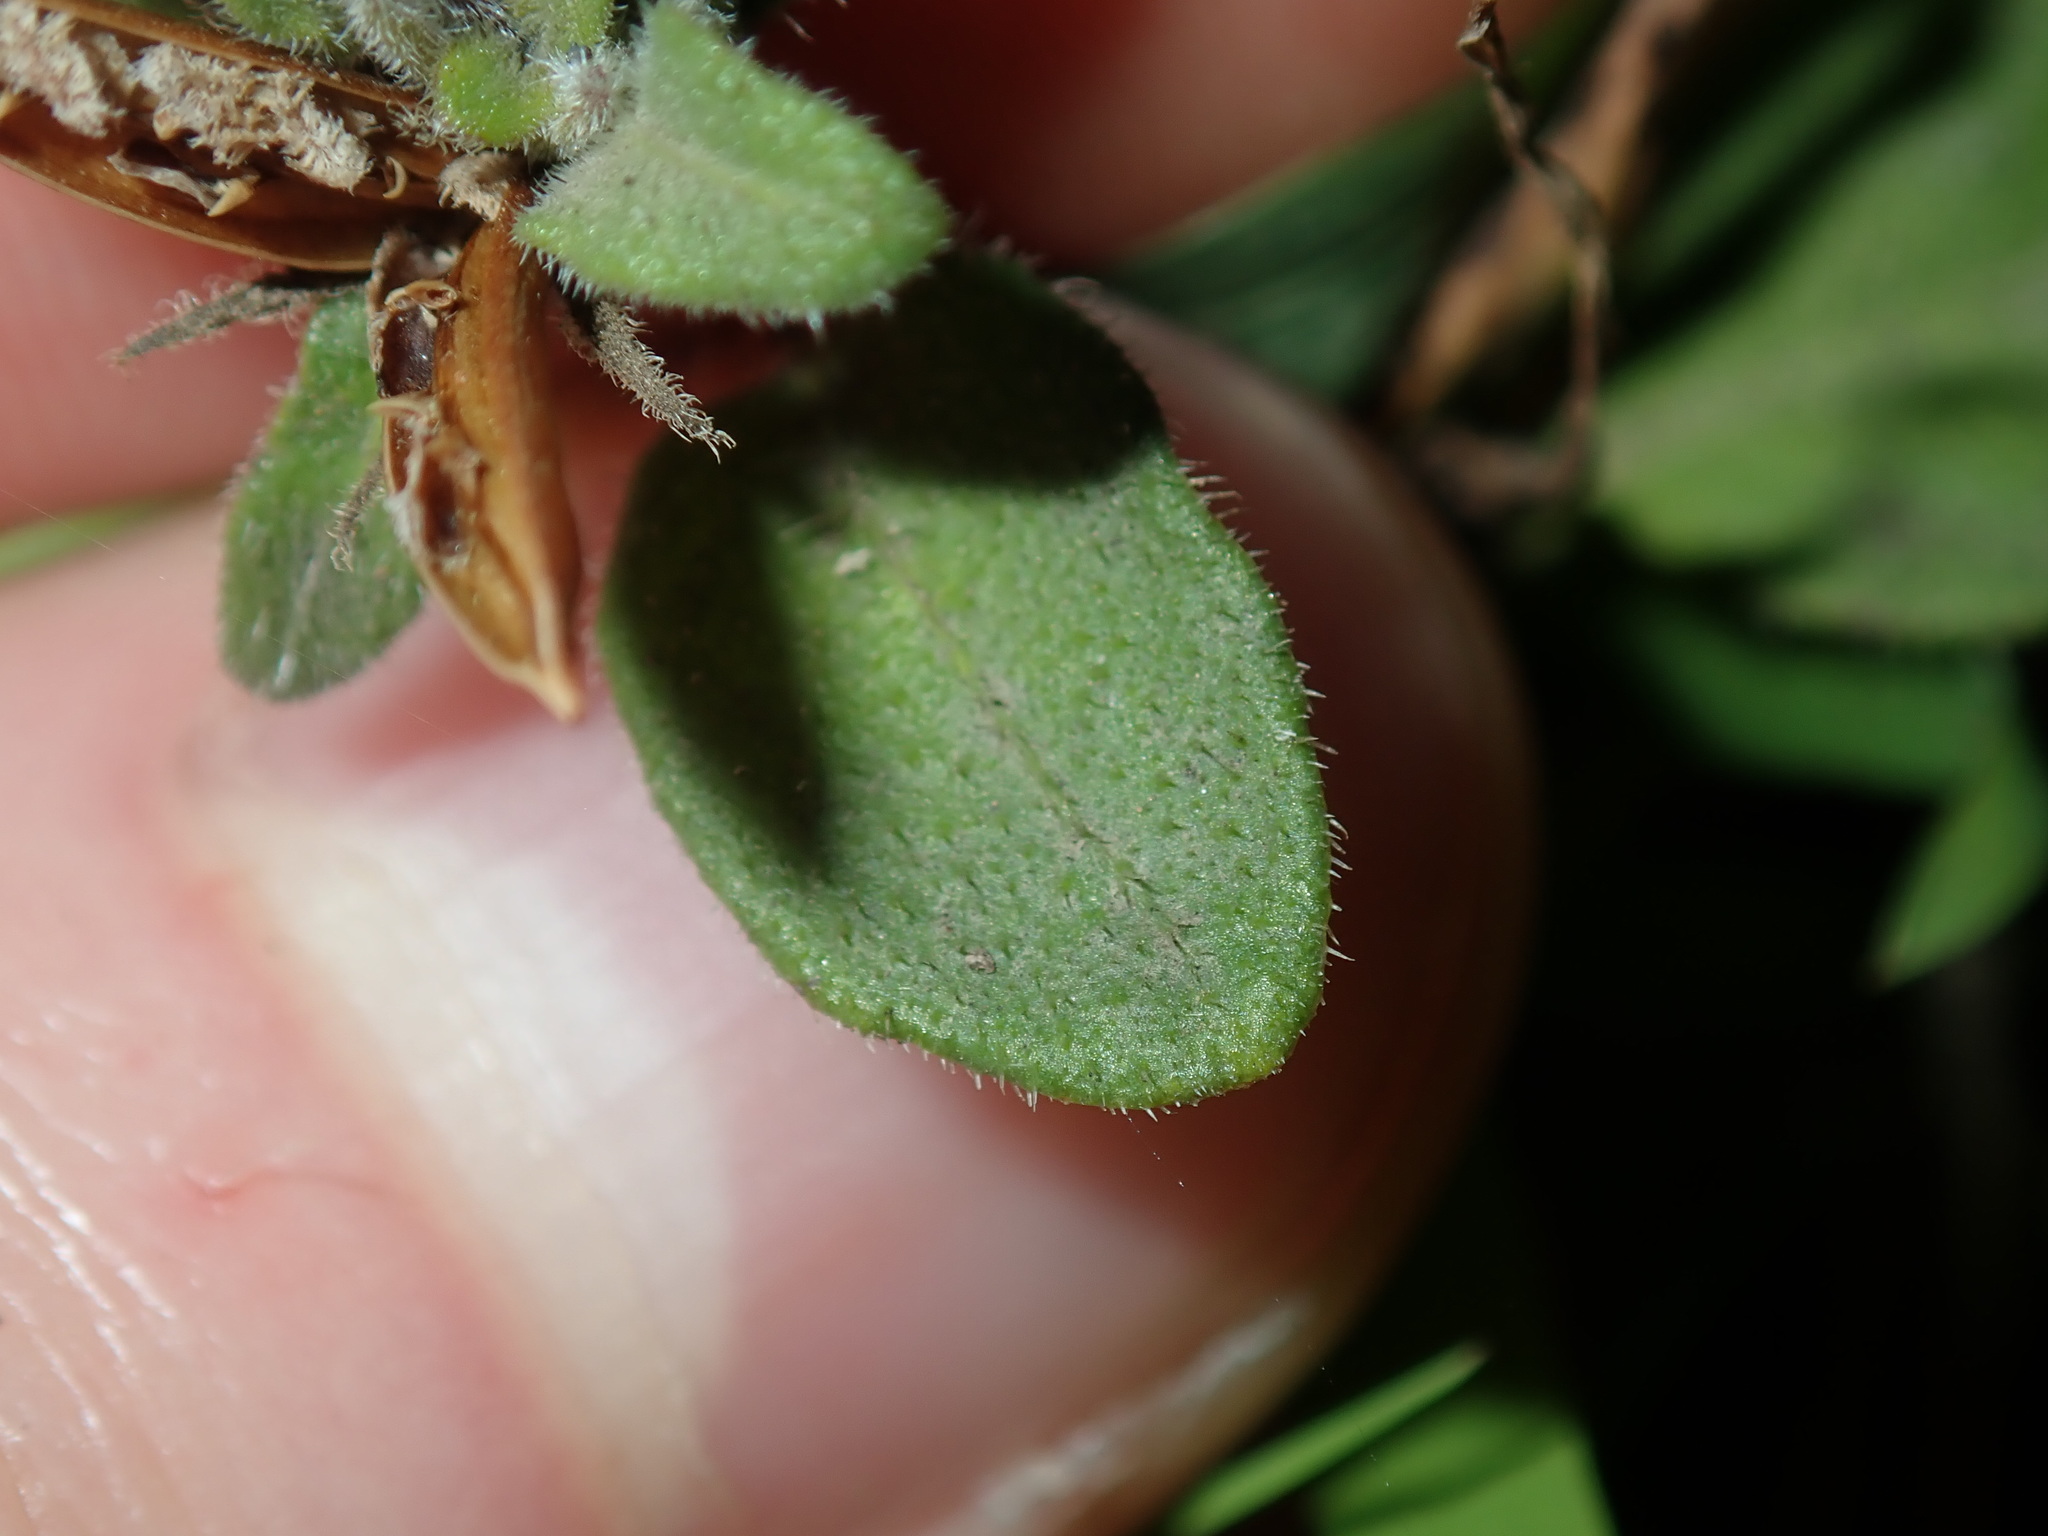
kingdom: Plantae
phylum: Tracheophyta
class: Magnoliopsida
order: Lamiales
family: Acanthaceae
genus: Brunoniella
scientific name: Brunoniella australis
